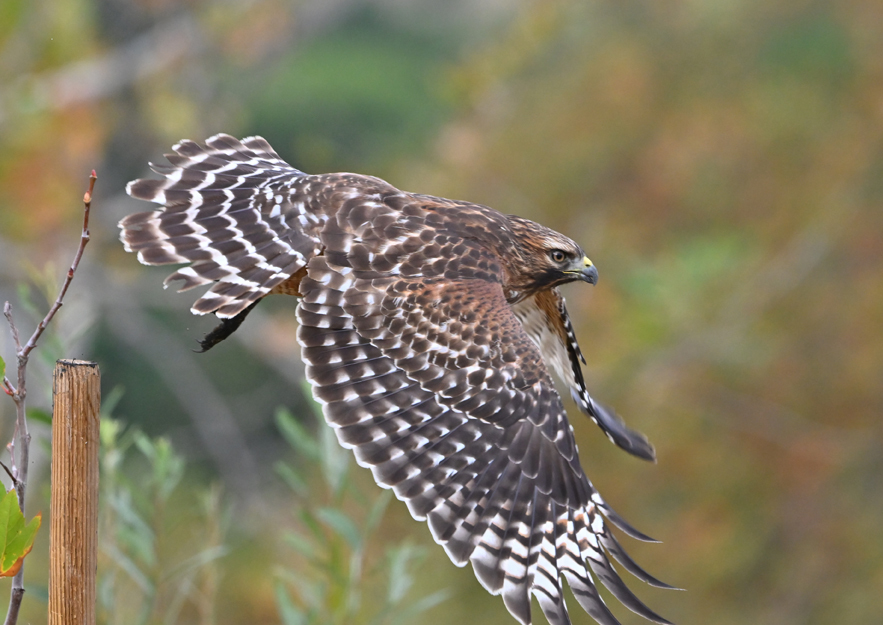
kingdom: Animalia
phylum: Chordata
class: Aves
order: Accipitriformes
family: Accipitridae
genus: Buteo
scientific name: Buteo lineatus
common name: Red-shouldered hawk
